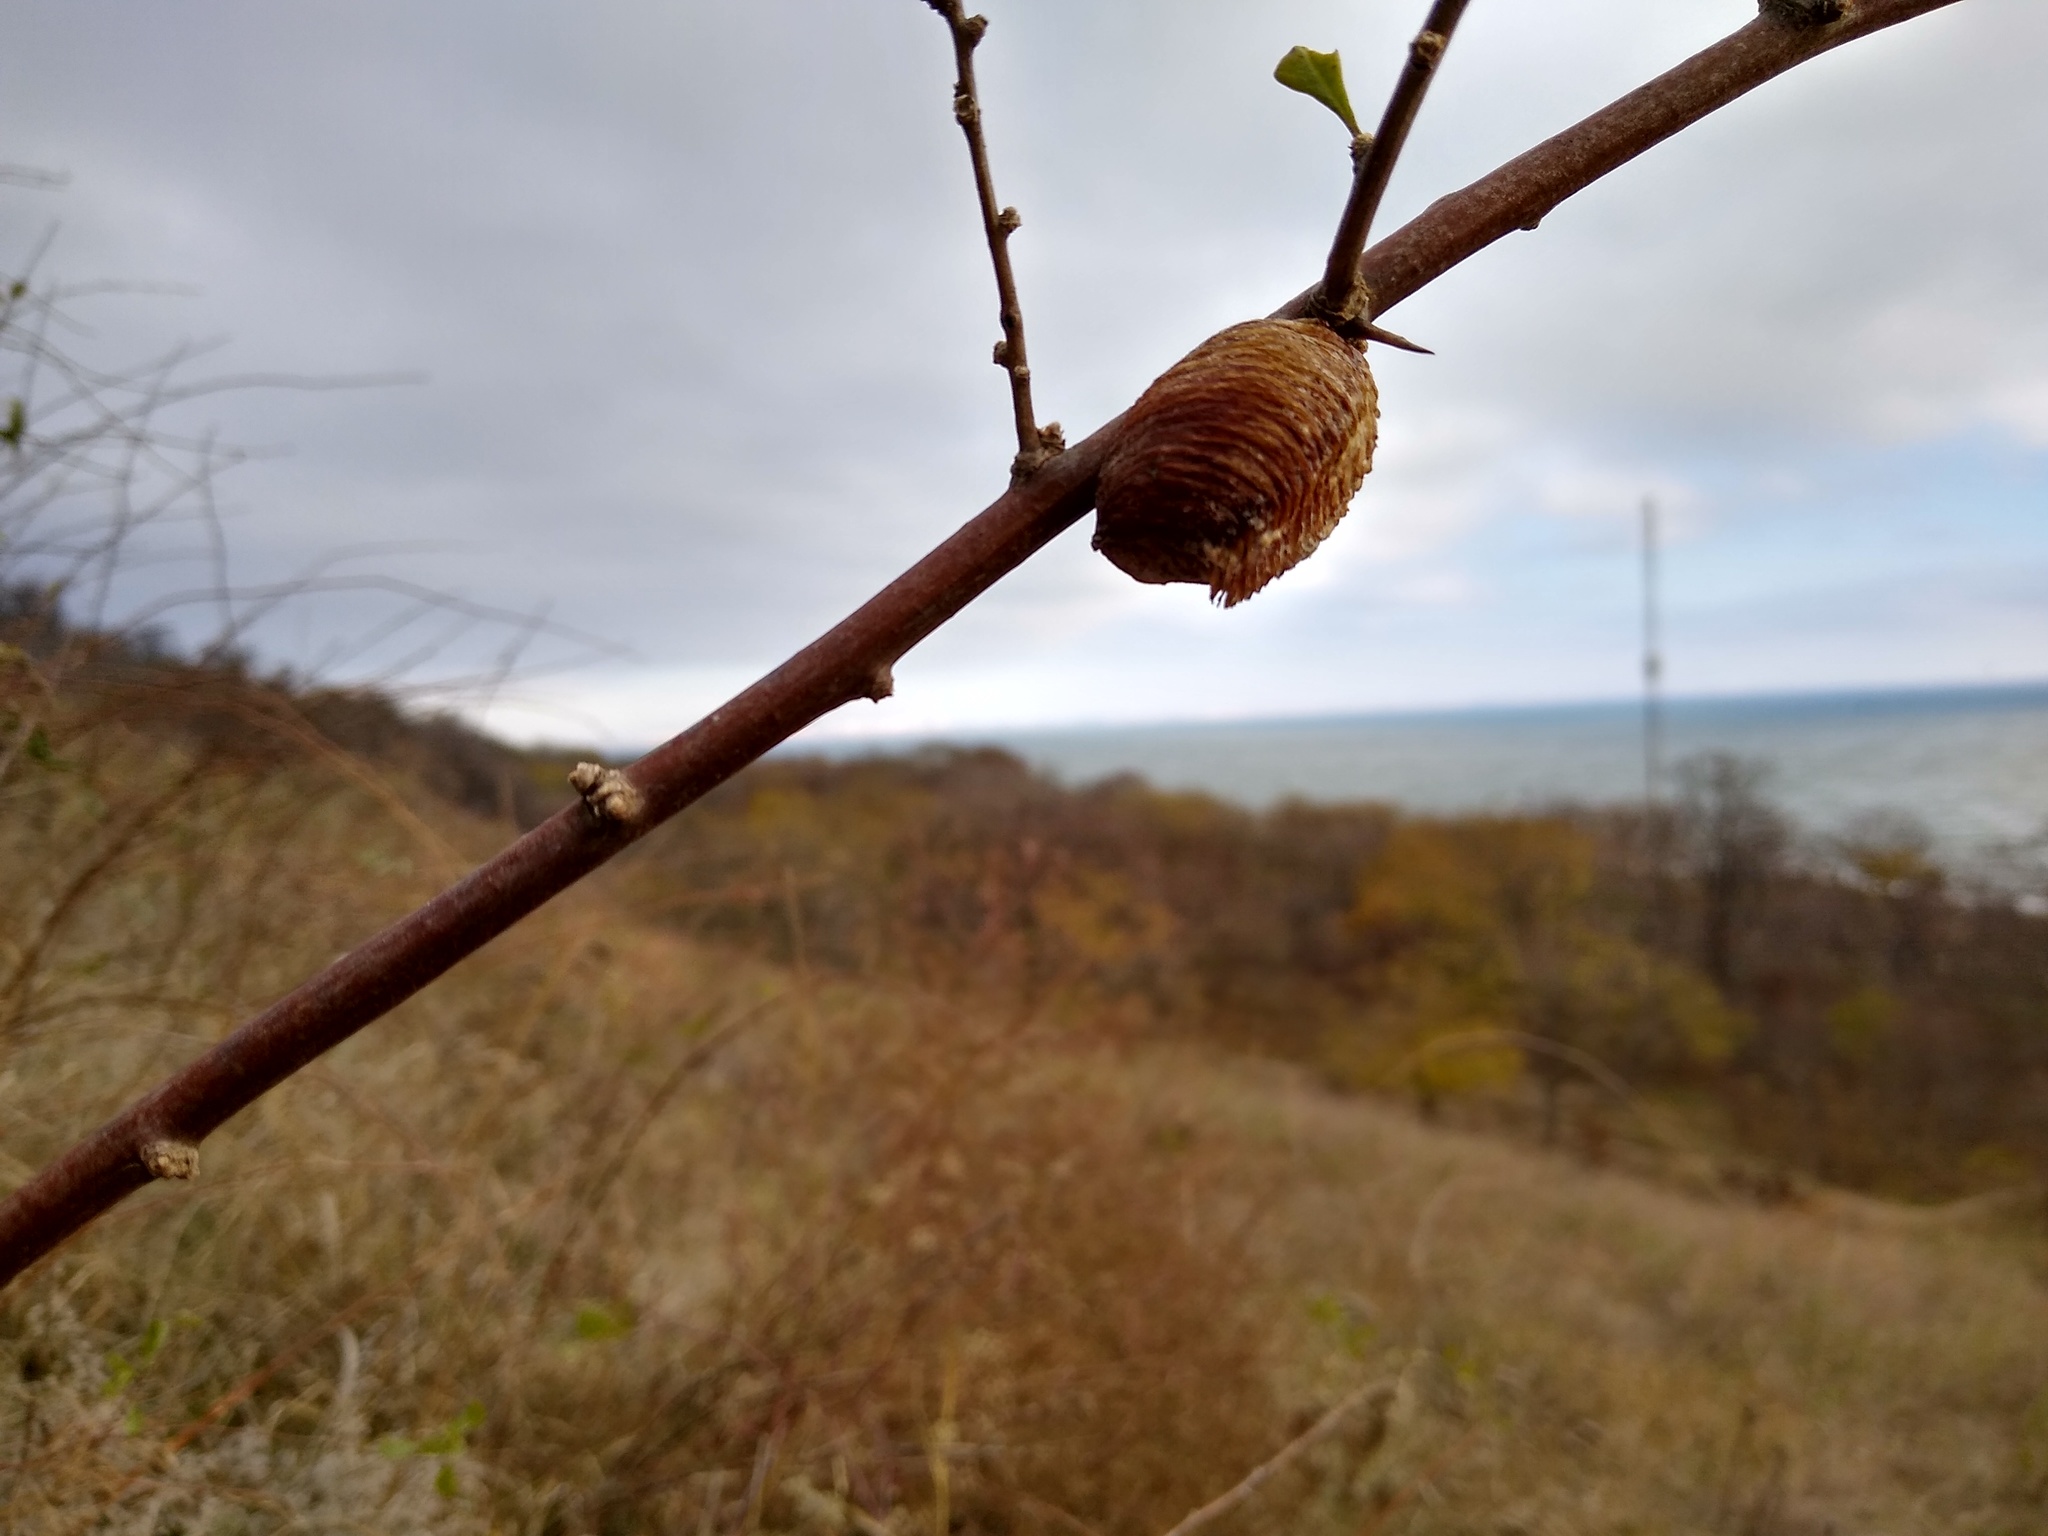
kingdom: Animalia
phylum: Arthropoda
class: Insecta
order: Mantodea
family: Mantidae
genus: Hierodula
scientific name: Hierodula transcaucasica
